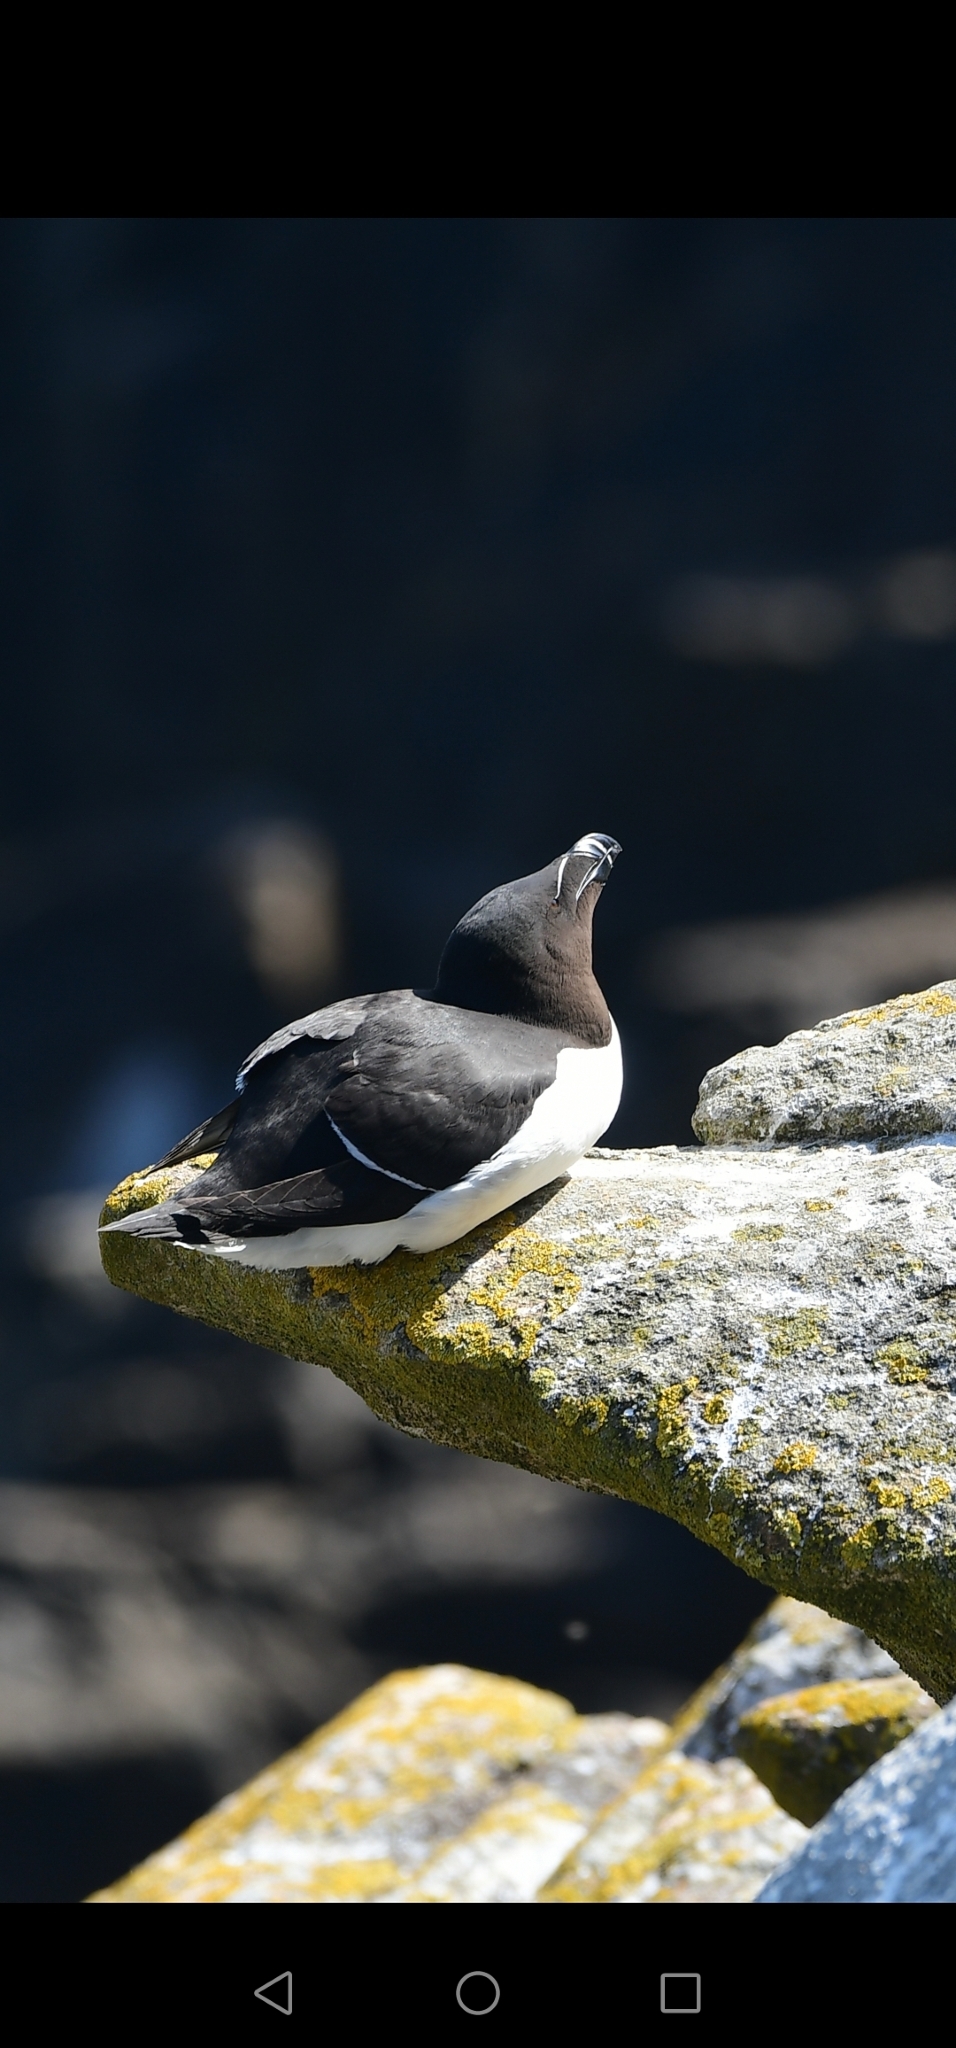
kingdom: Animalia
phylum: Chordata
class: Aves
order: Charadriiformes
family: Alcidae
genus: Alca
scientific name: Alca torda
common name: Razorbill
